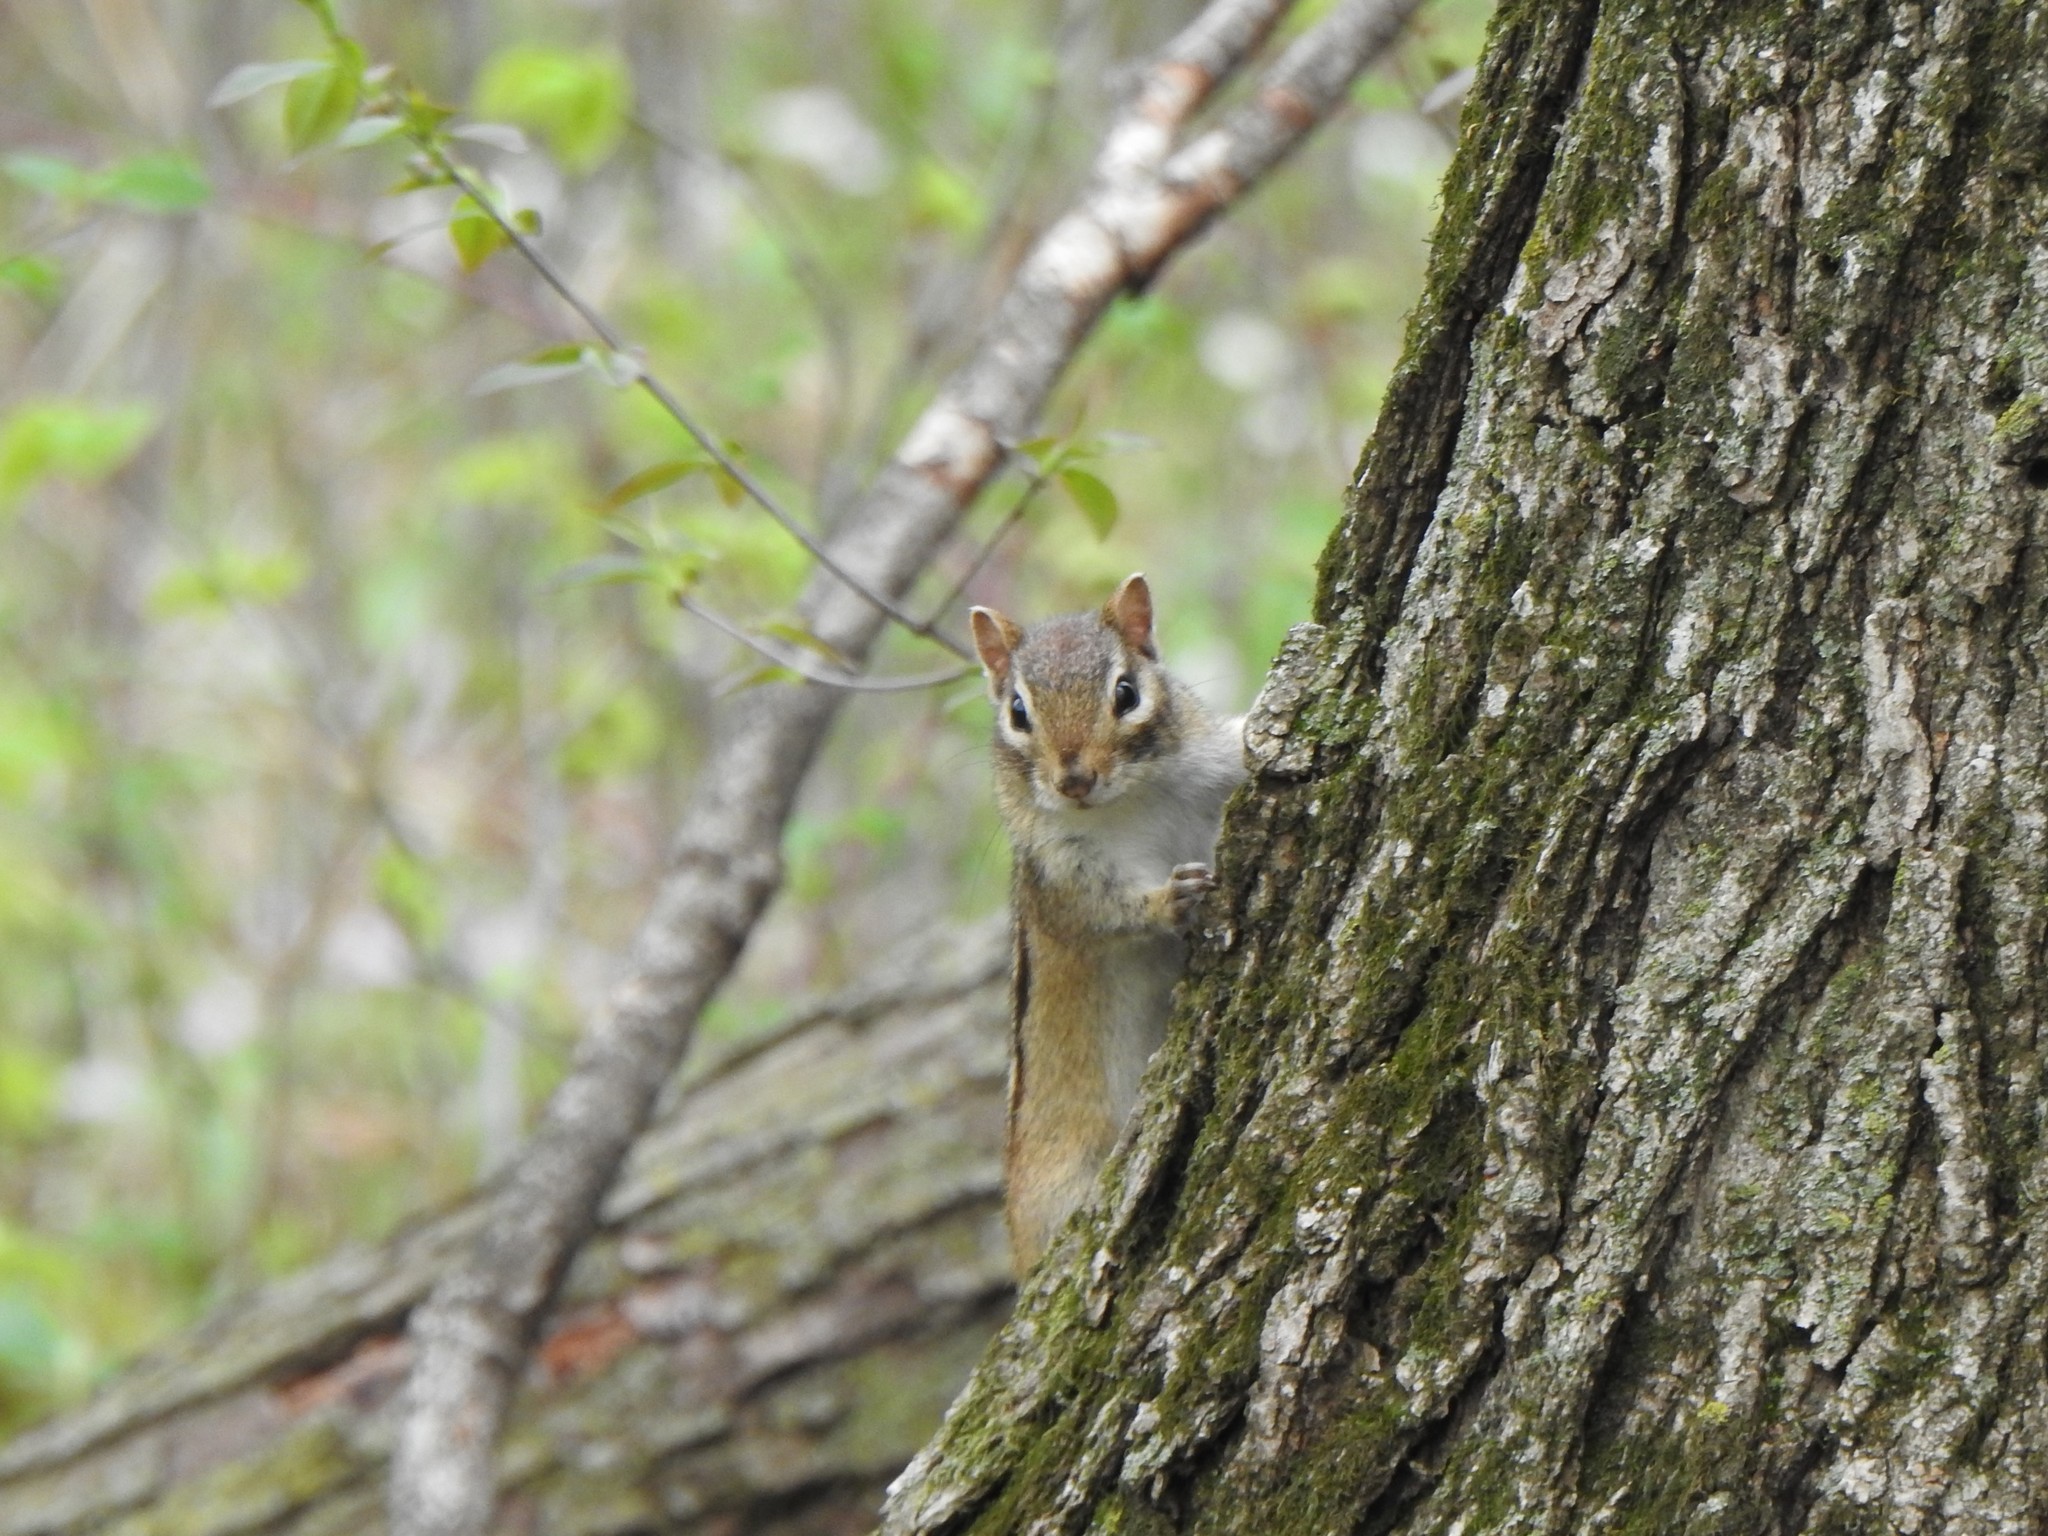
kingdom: Animalia
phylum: Chordata
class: Mammalia
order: Rodentia
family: Sciuridae
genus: Tamias
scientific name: Tamias striatus
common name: Eastern chipmunk
